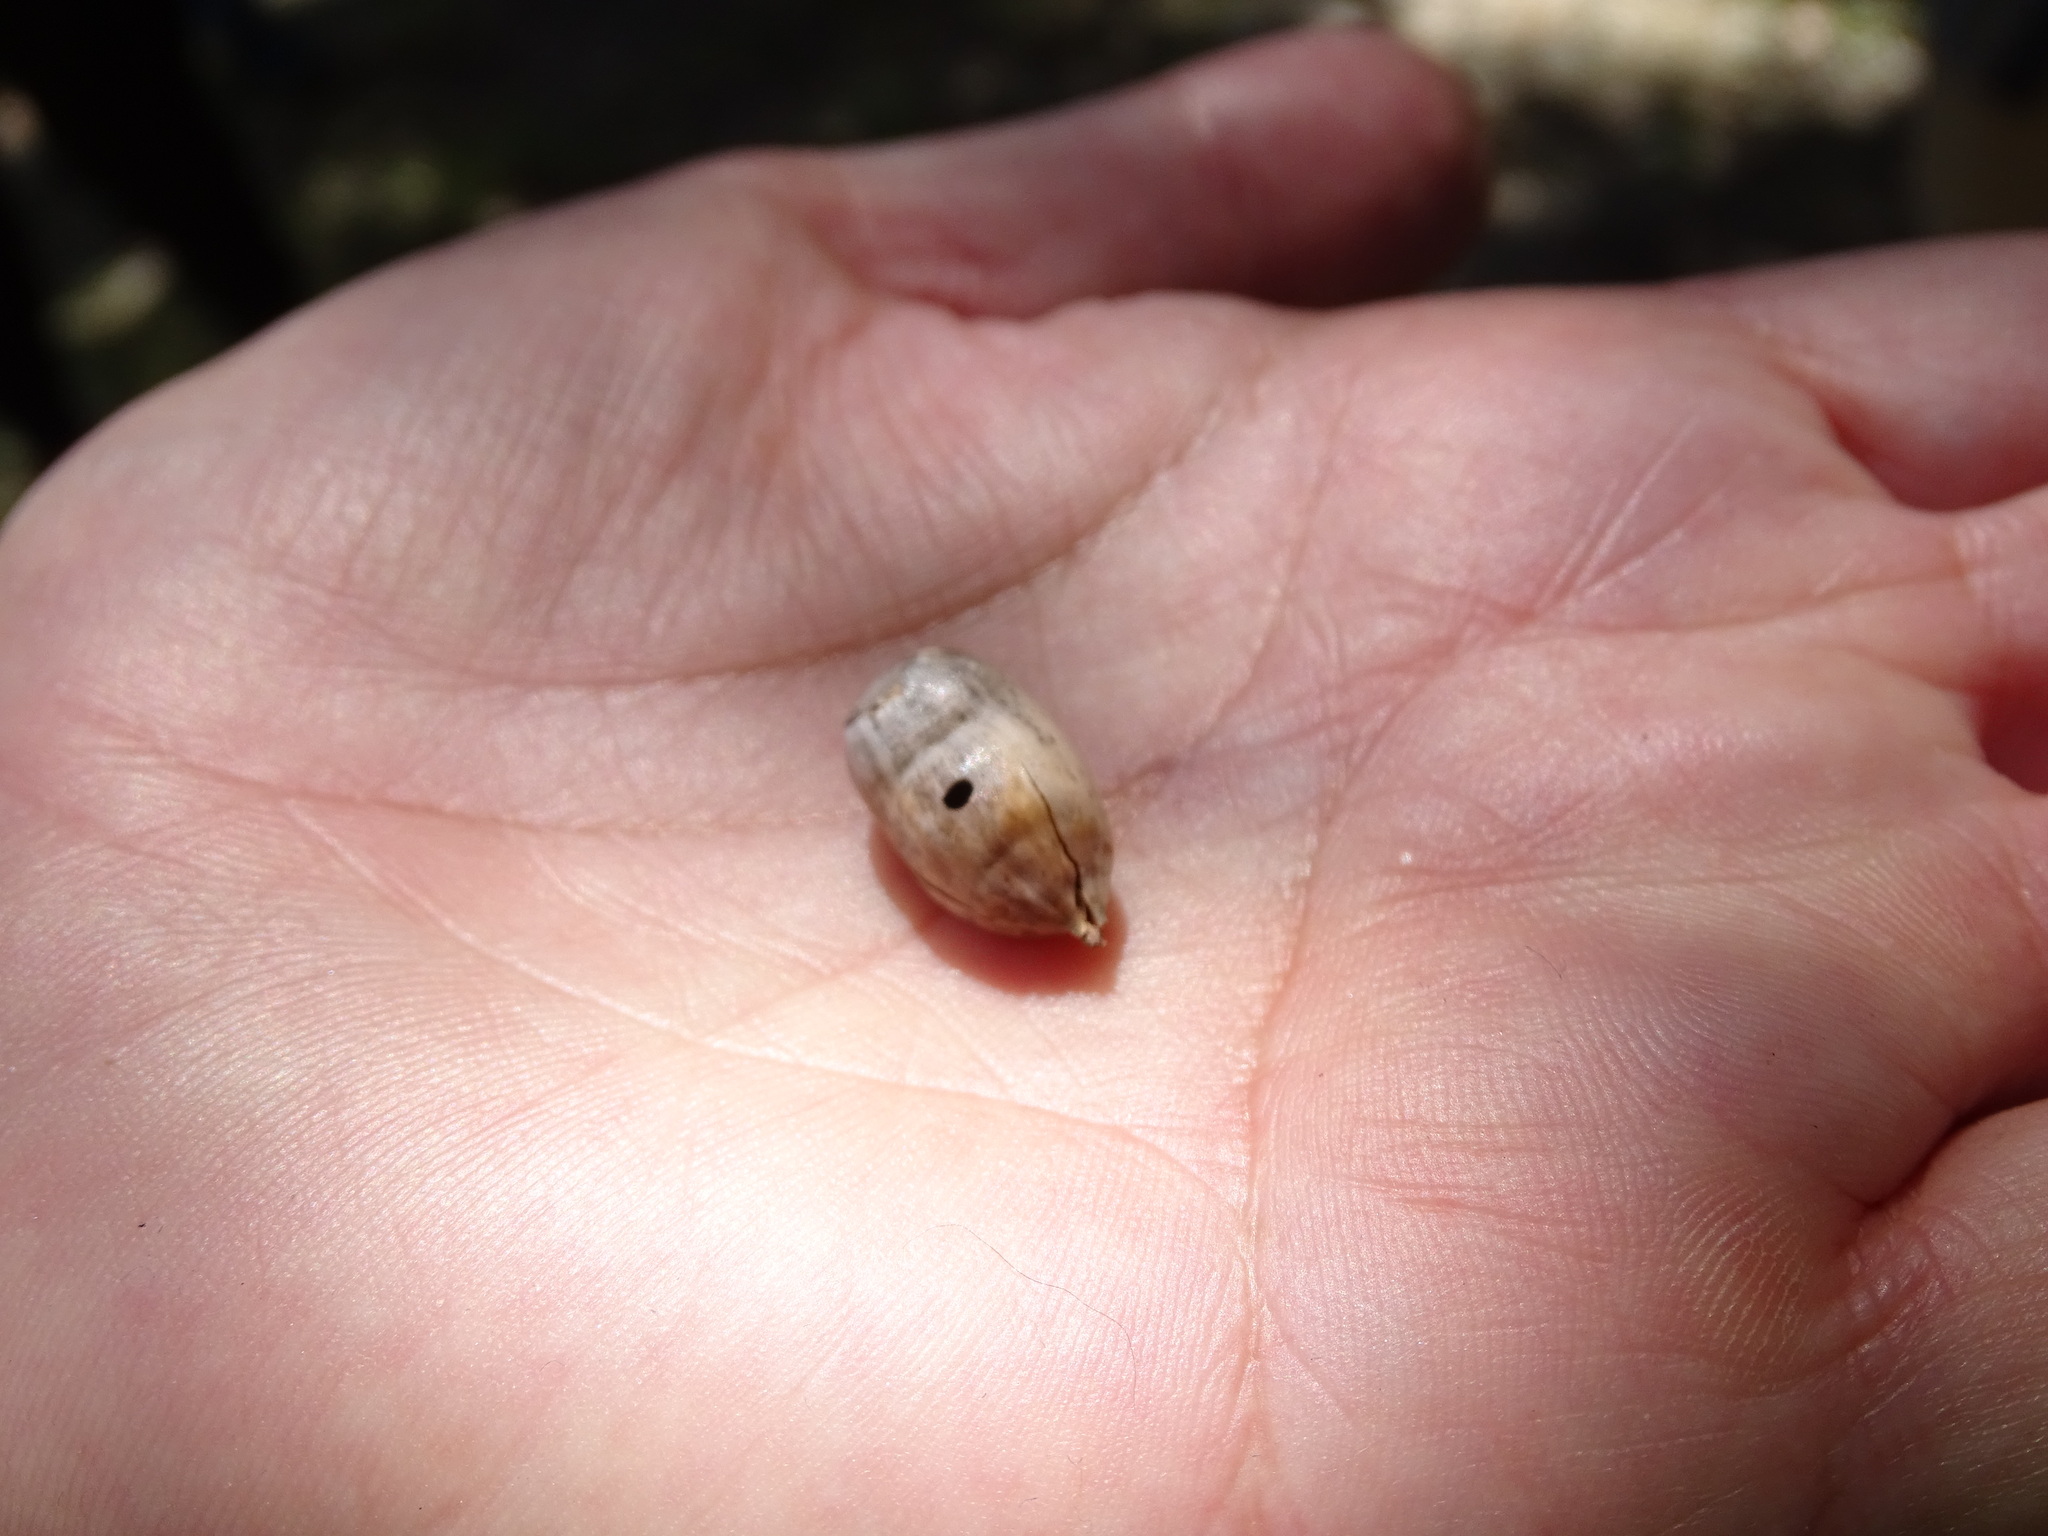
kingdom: Plantae
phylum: Tracheophyta
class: Magnoliopsida
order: Fagales
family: Fagaceae
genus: Quercus
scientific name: Quercus rugosa
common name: Netleaf oak
